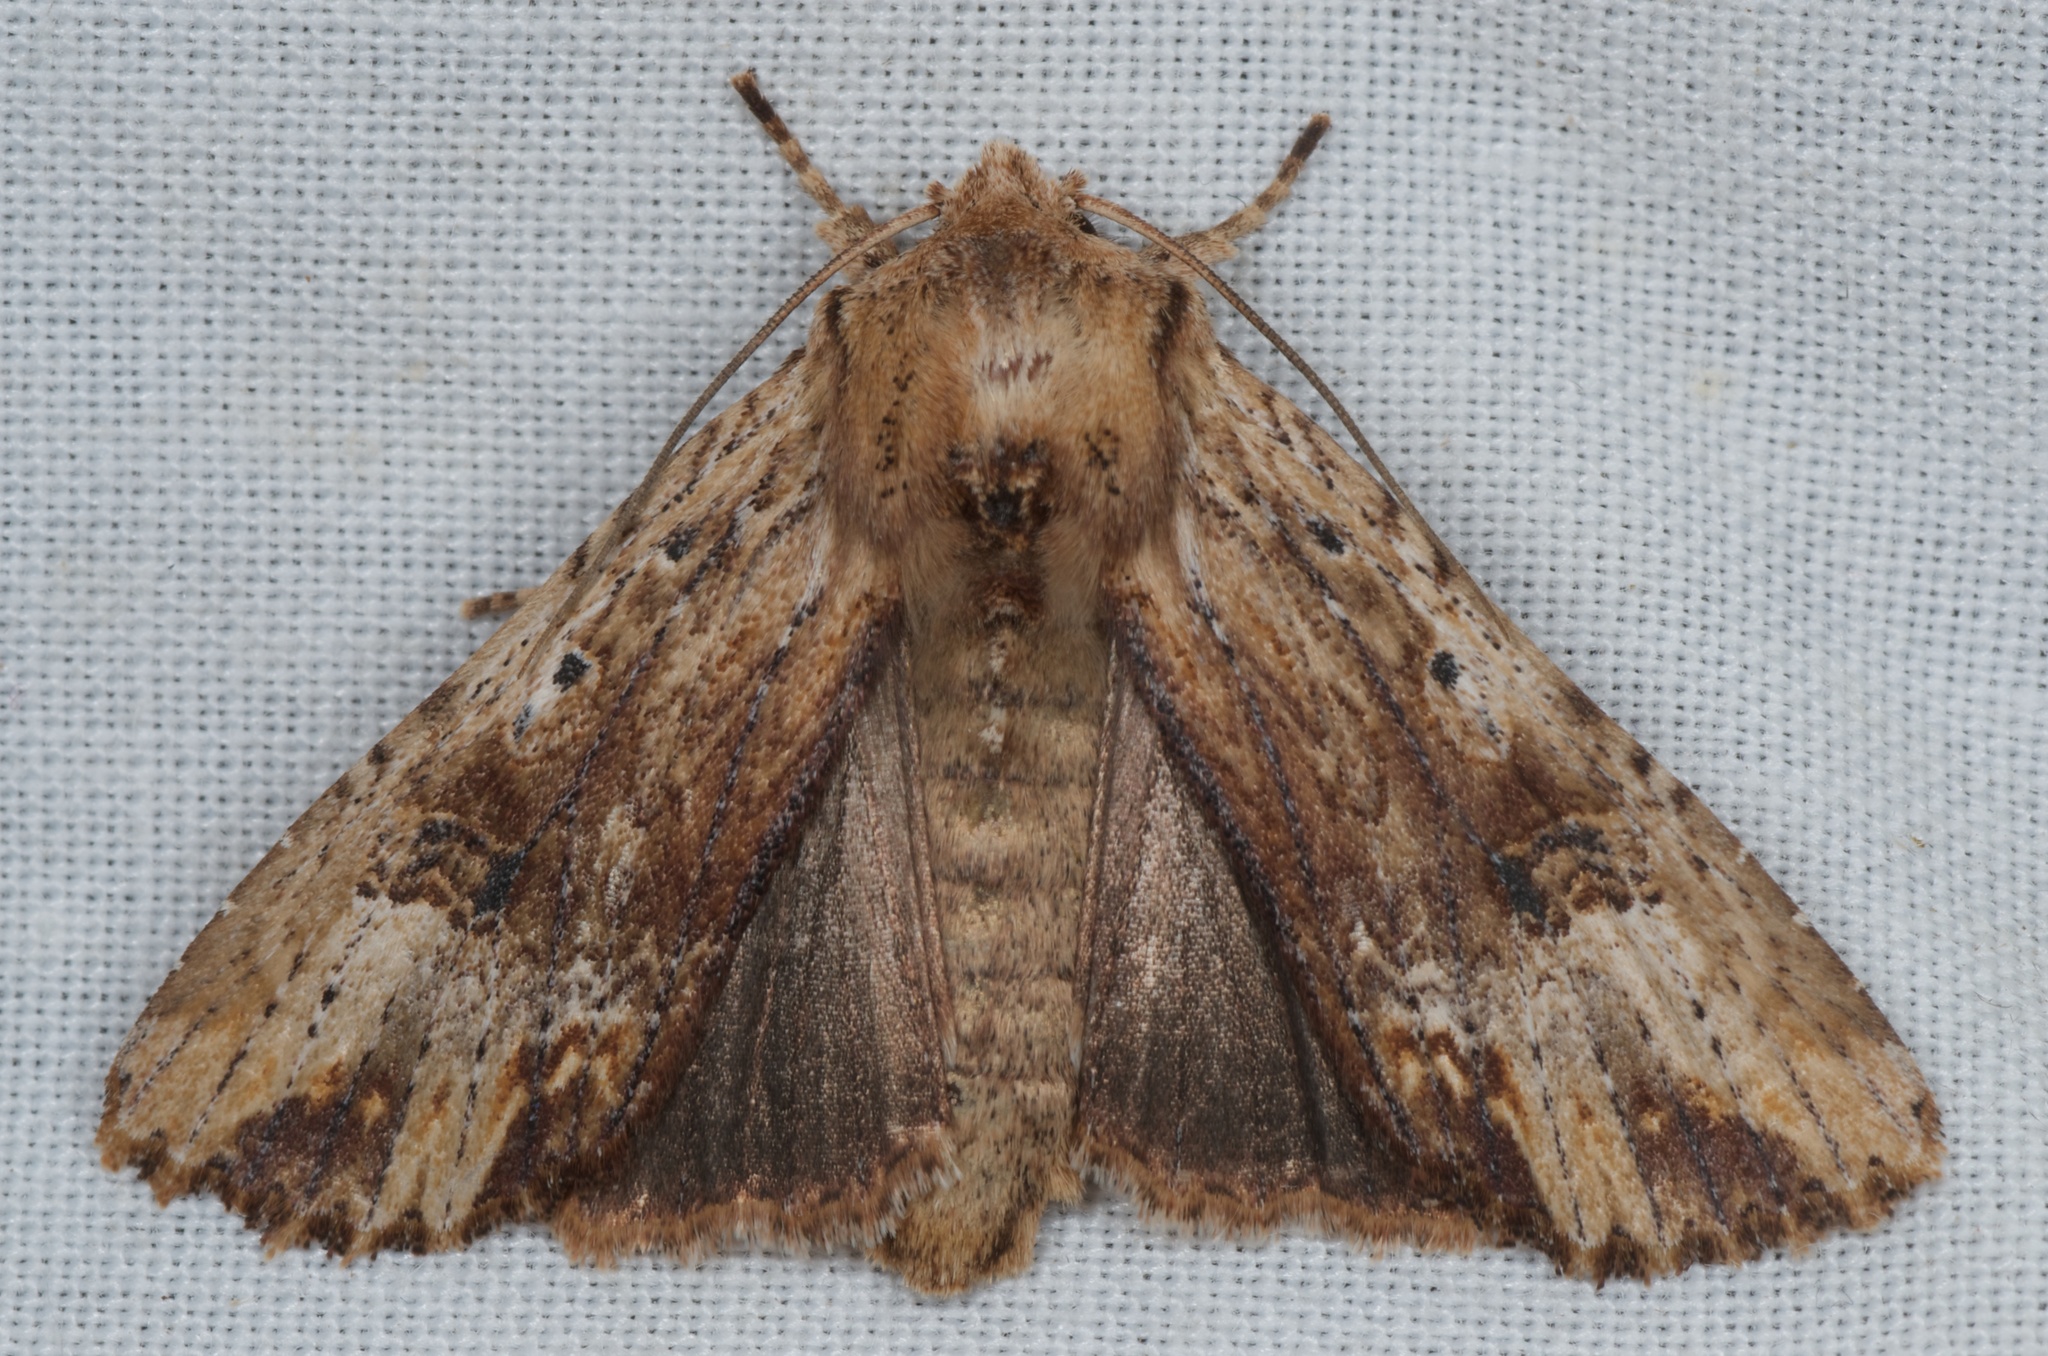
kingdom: Animalia
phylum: Arthropoda
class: Insecta
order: Lepidoptera
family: Noctuidae
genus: Ichneutica
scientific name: Ichneutica
